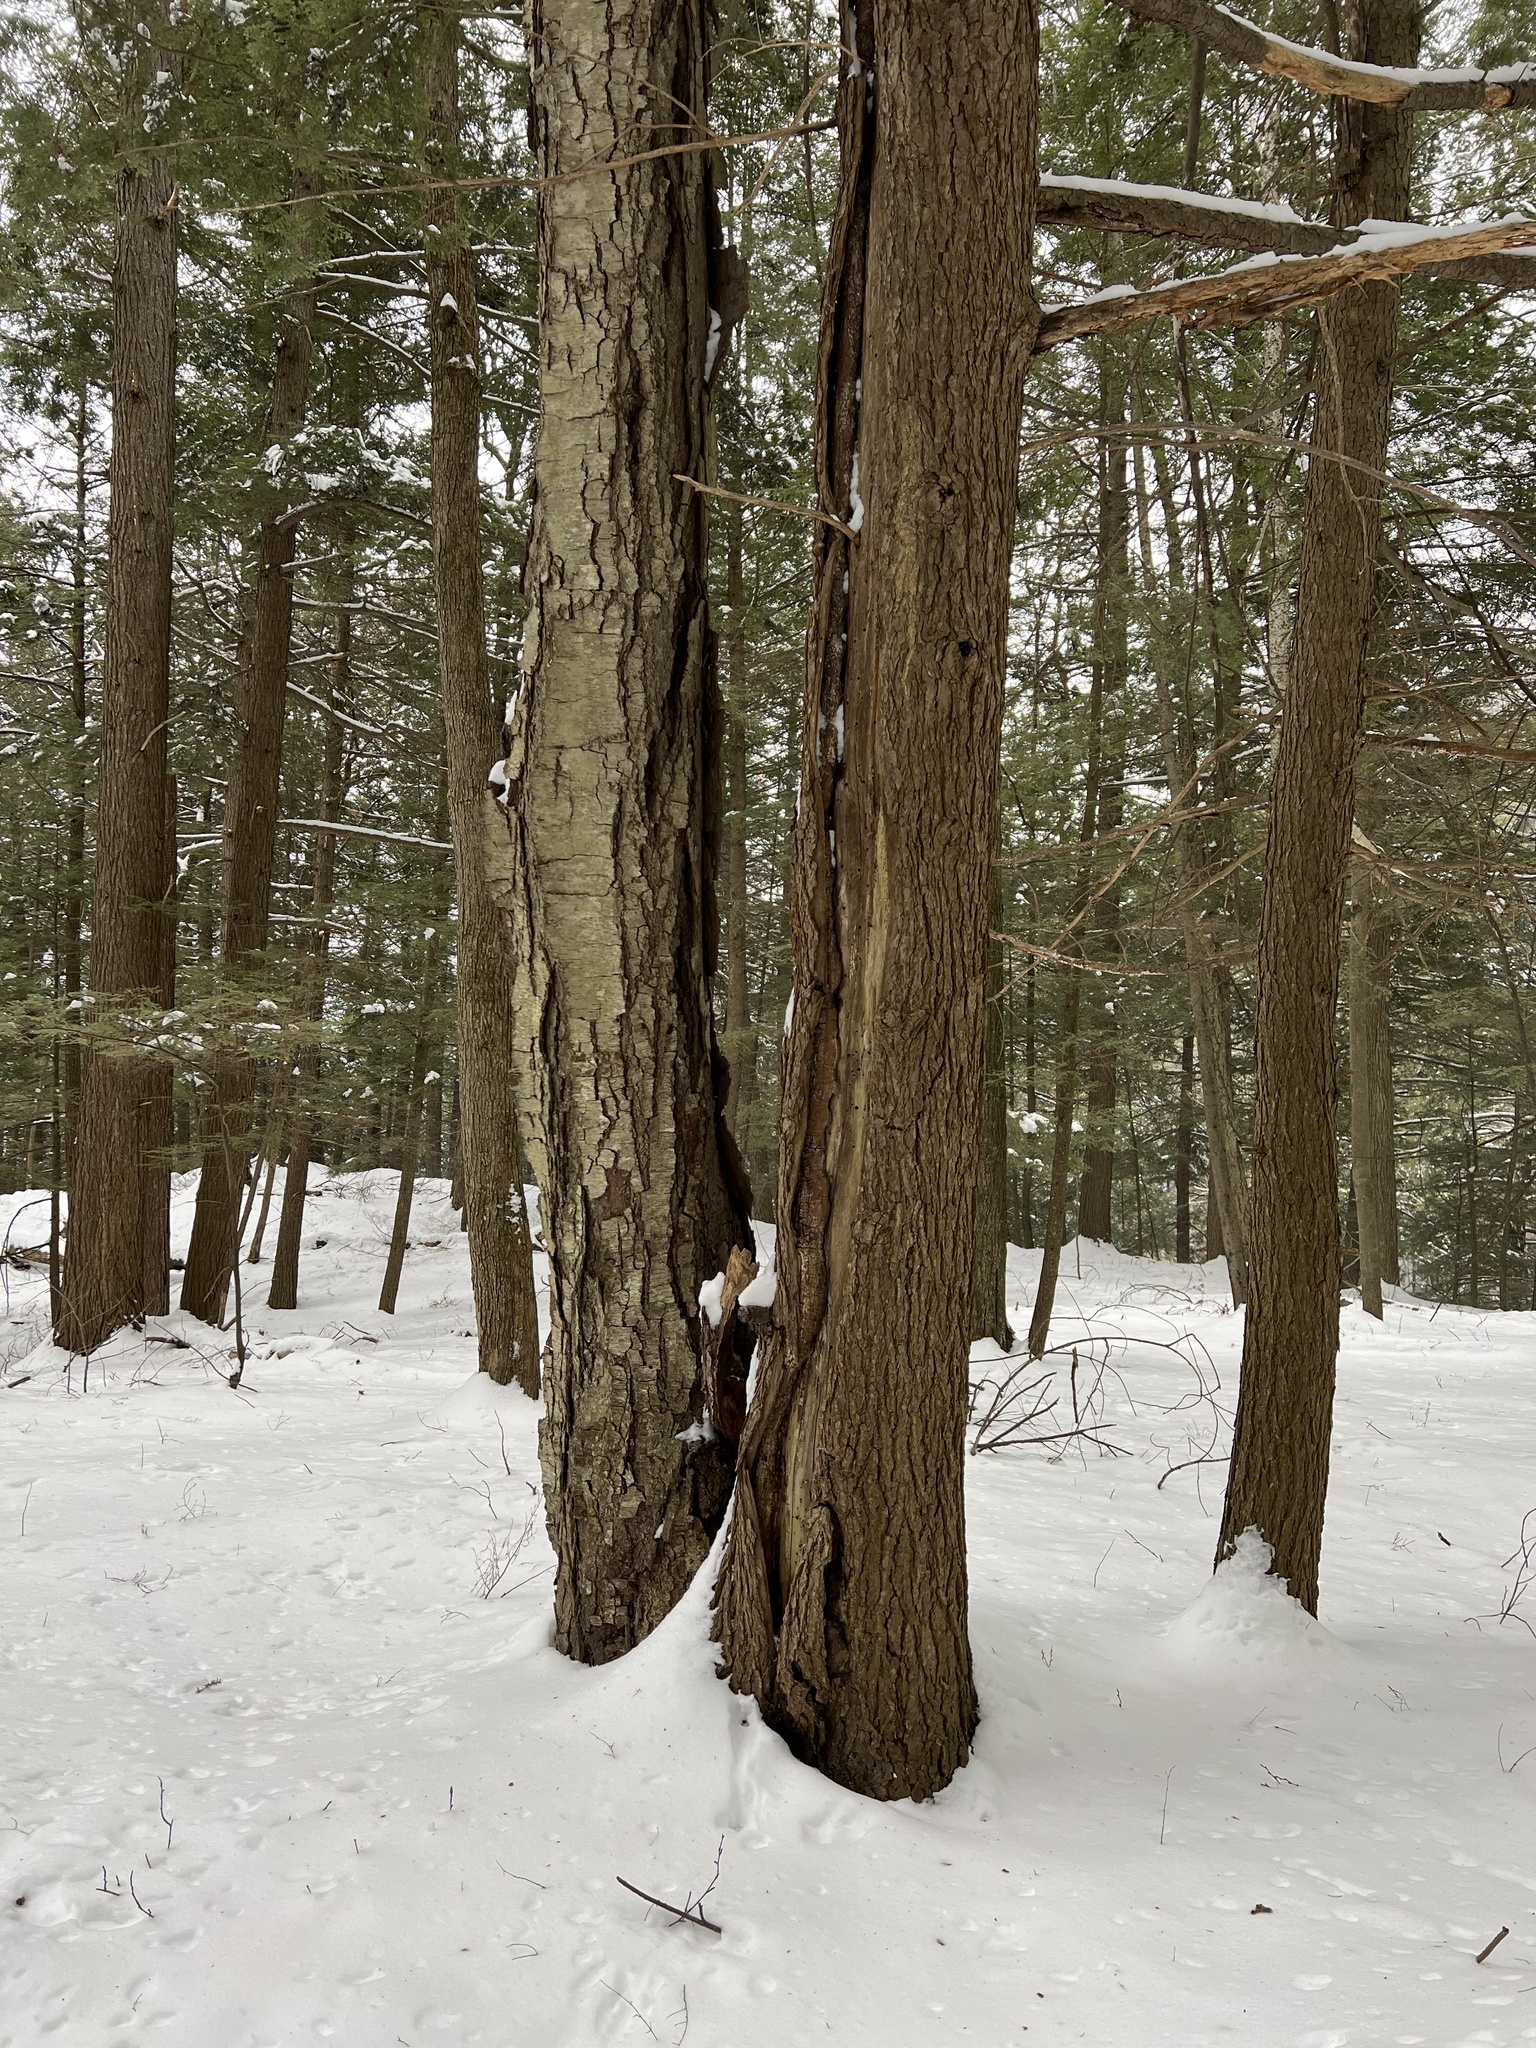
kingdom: Plantae
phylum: Tracheophyta
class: Pinopsida
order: Pinales
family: Pinaceae
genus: Tsuga
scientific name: Tsuga canadensis
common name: Eastern hemlock
